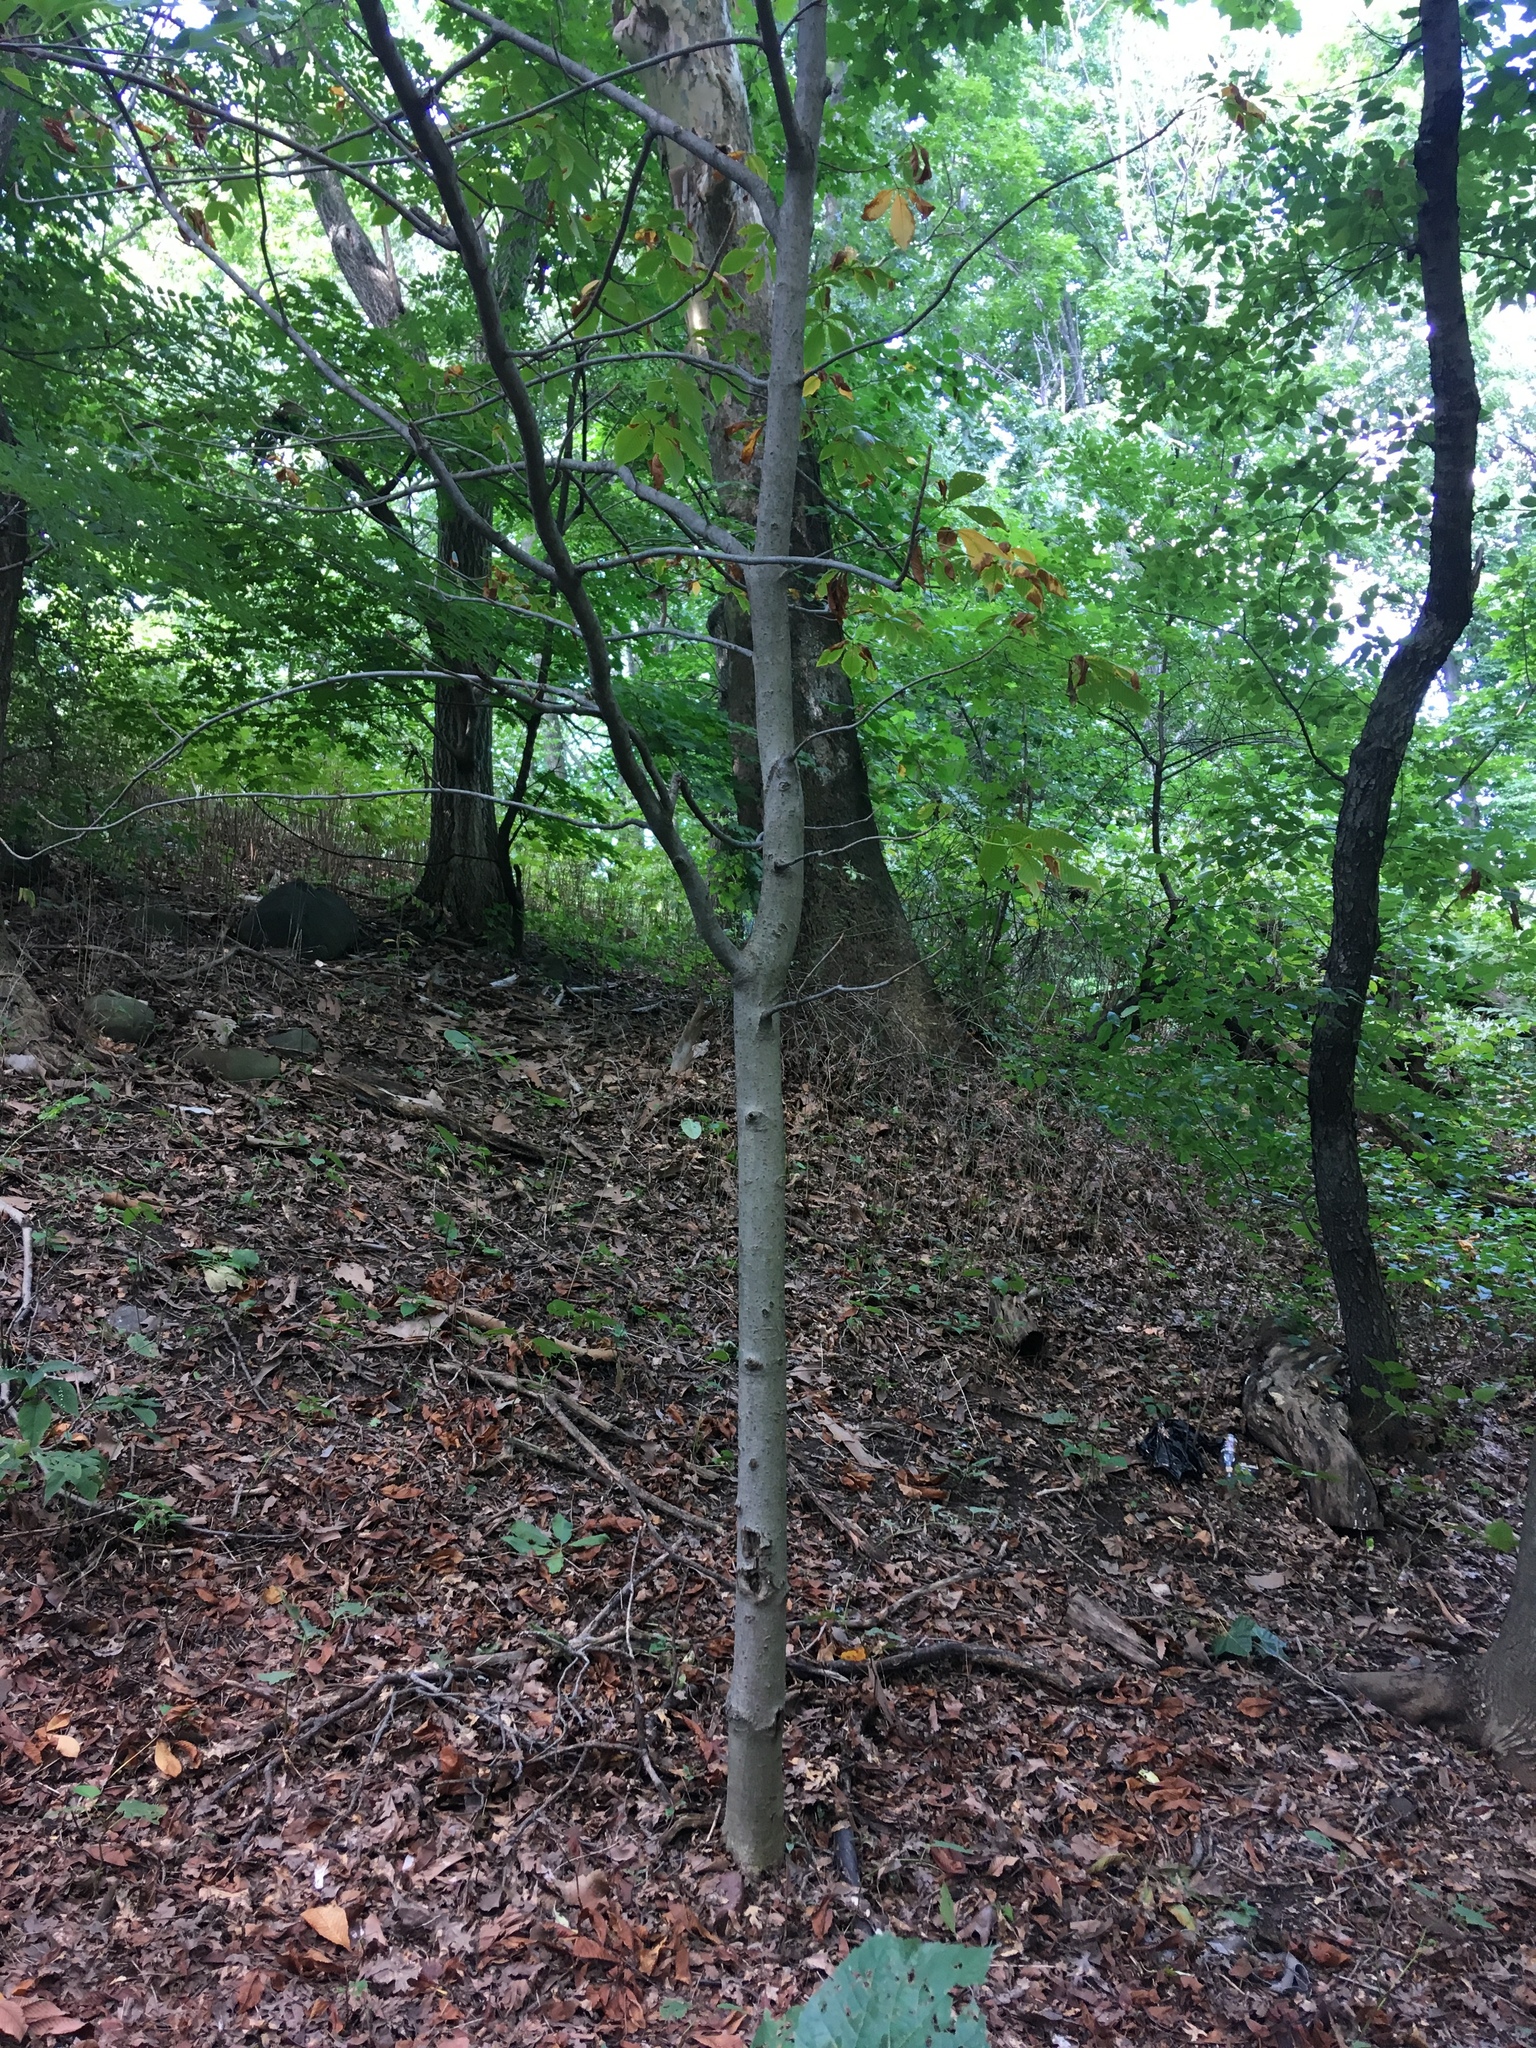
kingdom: Plantae
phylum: Tracheophyta
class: Magnoliopsida
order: Sapindales
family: Sapindaceae
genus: Aesculus
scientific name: Aesculus flava
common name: Yellow buckeye
